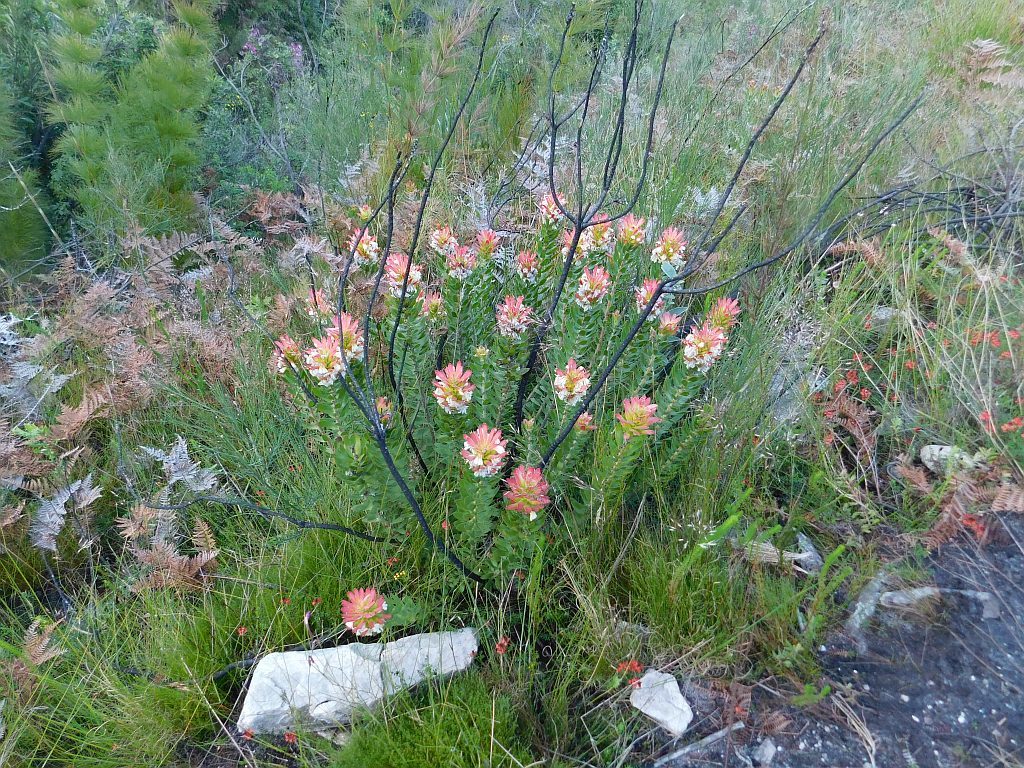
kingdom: Plantae
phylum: Tracheophyta
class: Magnoliopsida
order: Proteales
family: Proteaceae
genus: Mimetes
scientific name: Mimetes cucullatus
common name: Common pagoda
